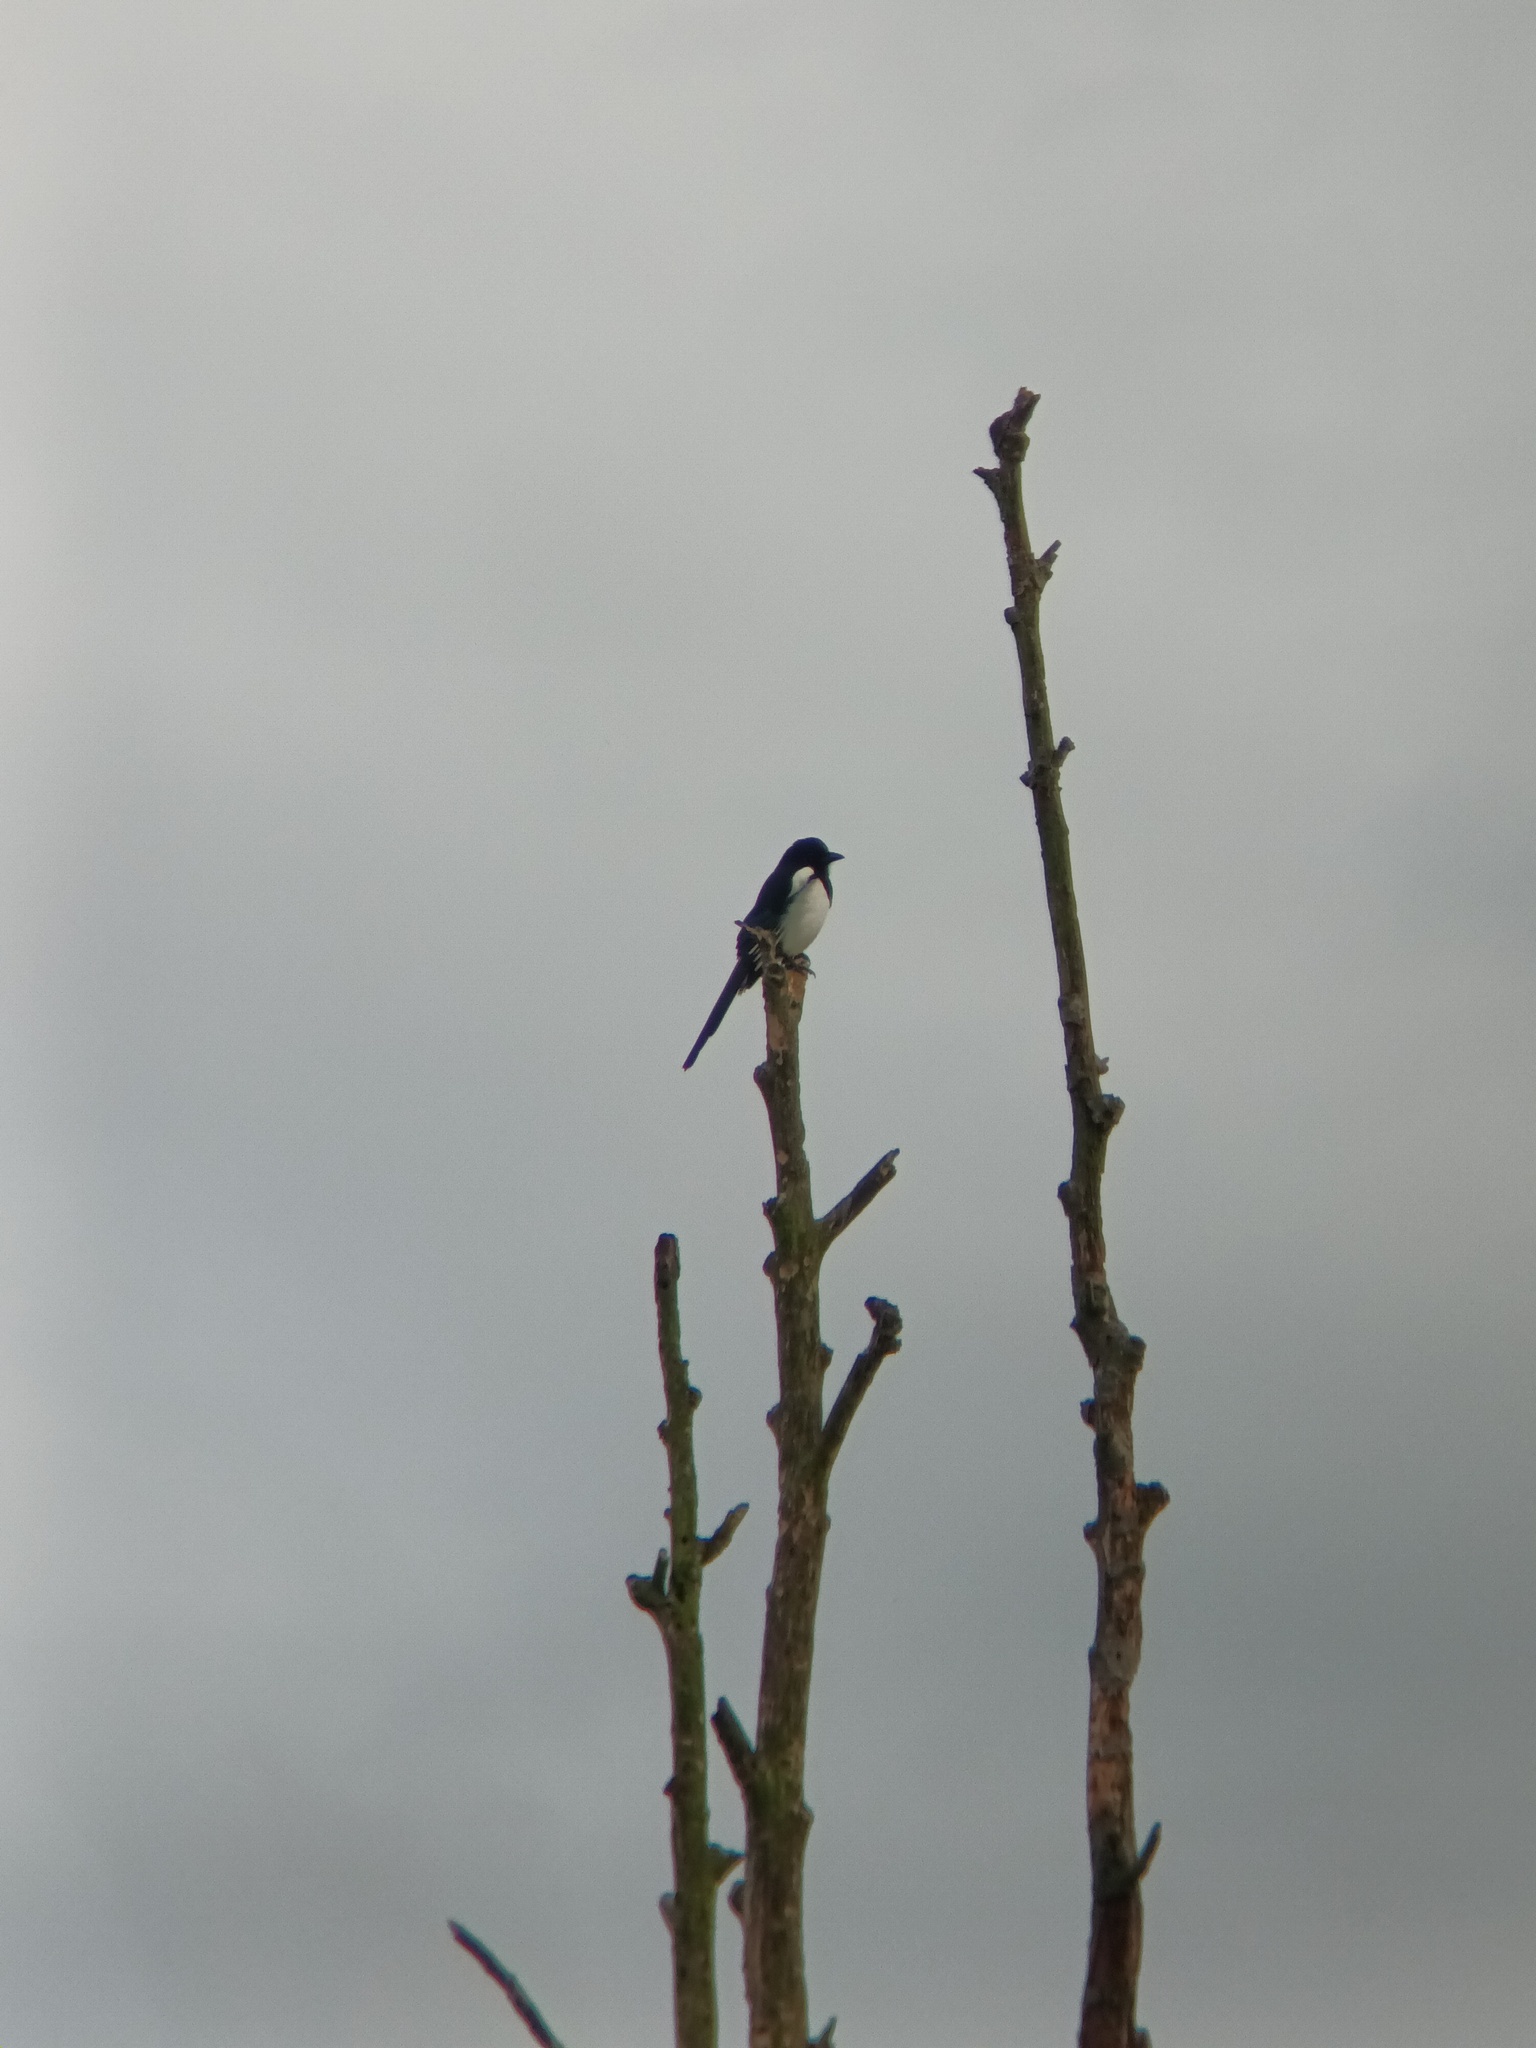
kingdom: Animalia
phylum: Chordata
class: Aves
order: Passeriformes
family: Corvidae
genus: Pica
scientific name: Pica pica
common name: Eurasian magpie
